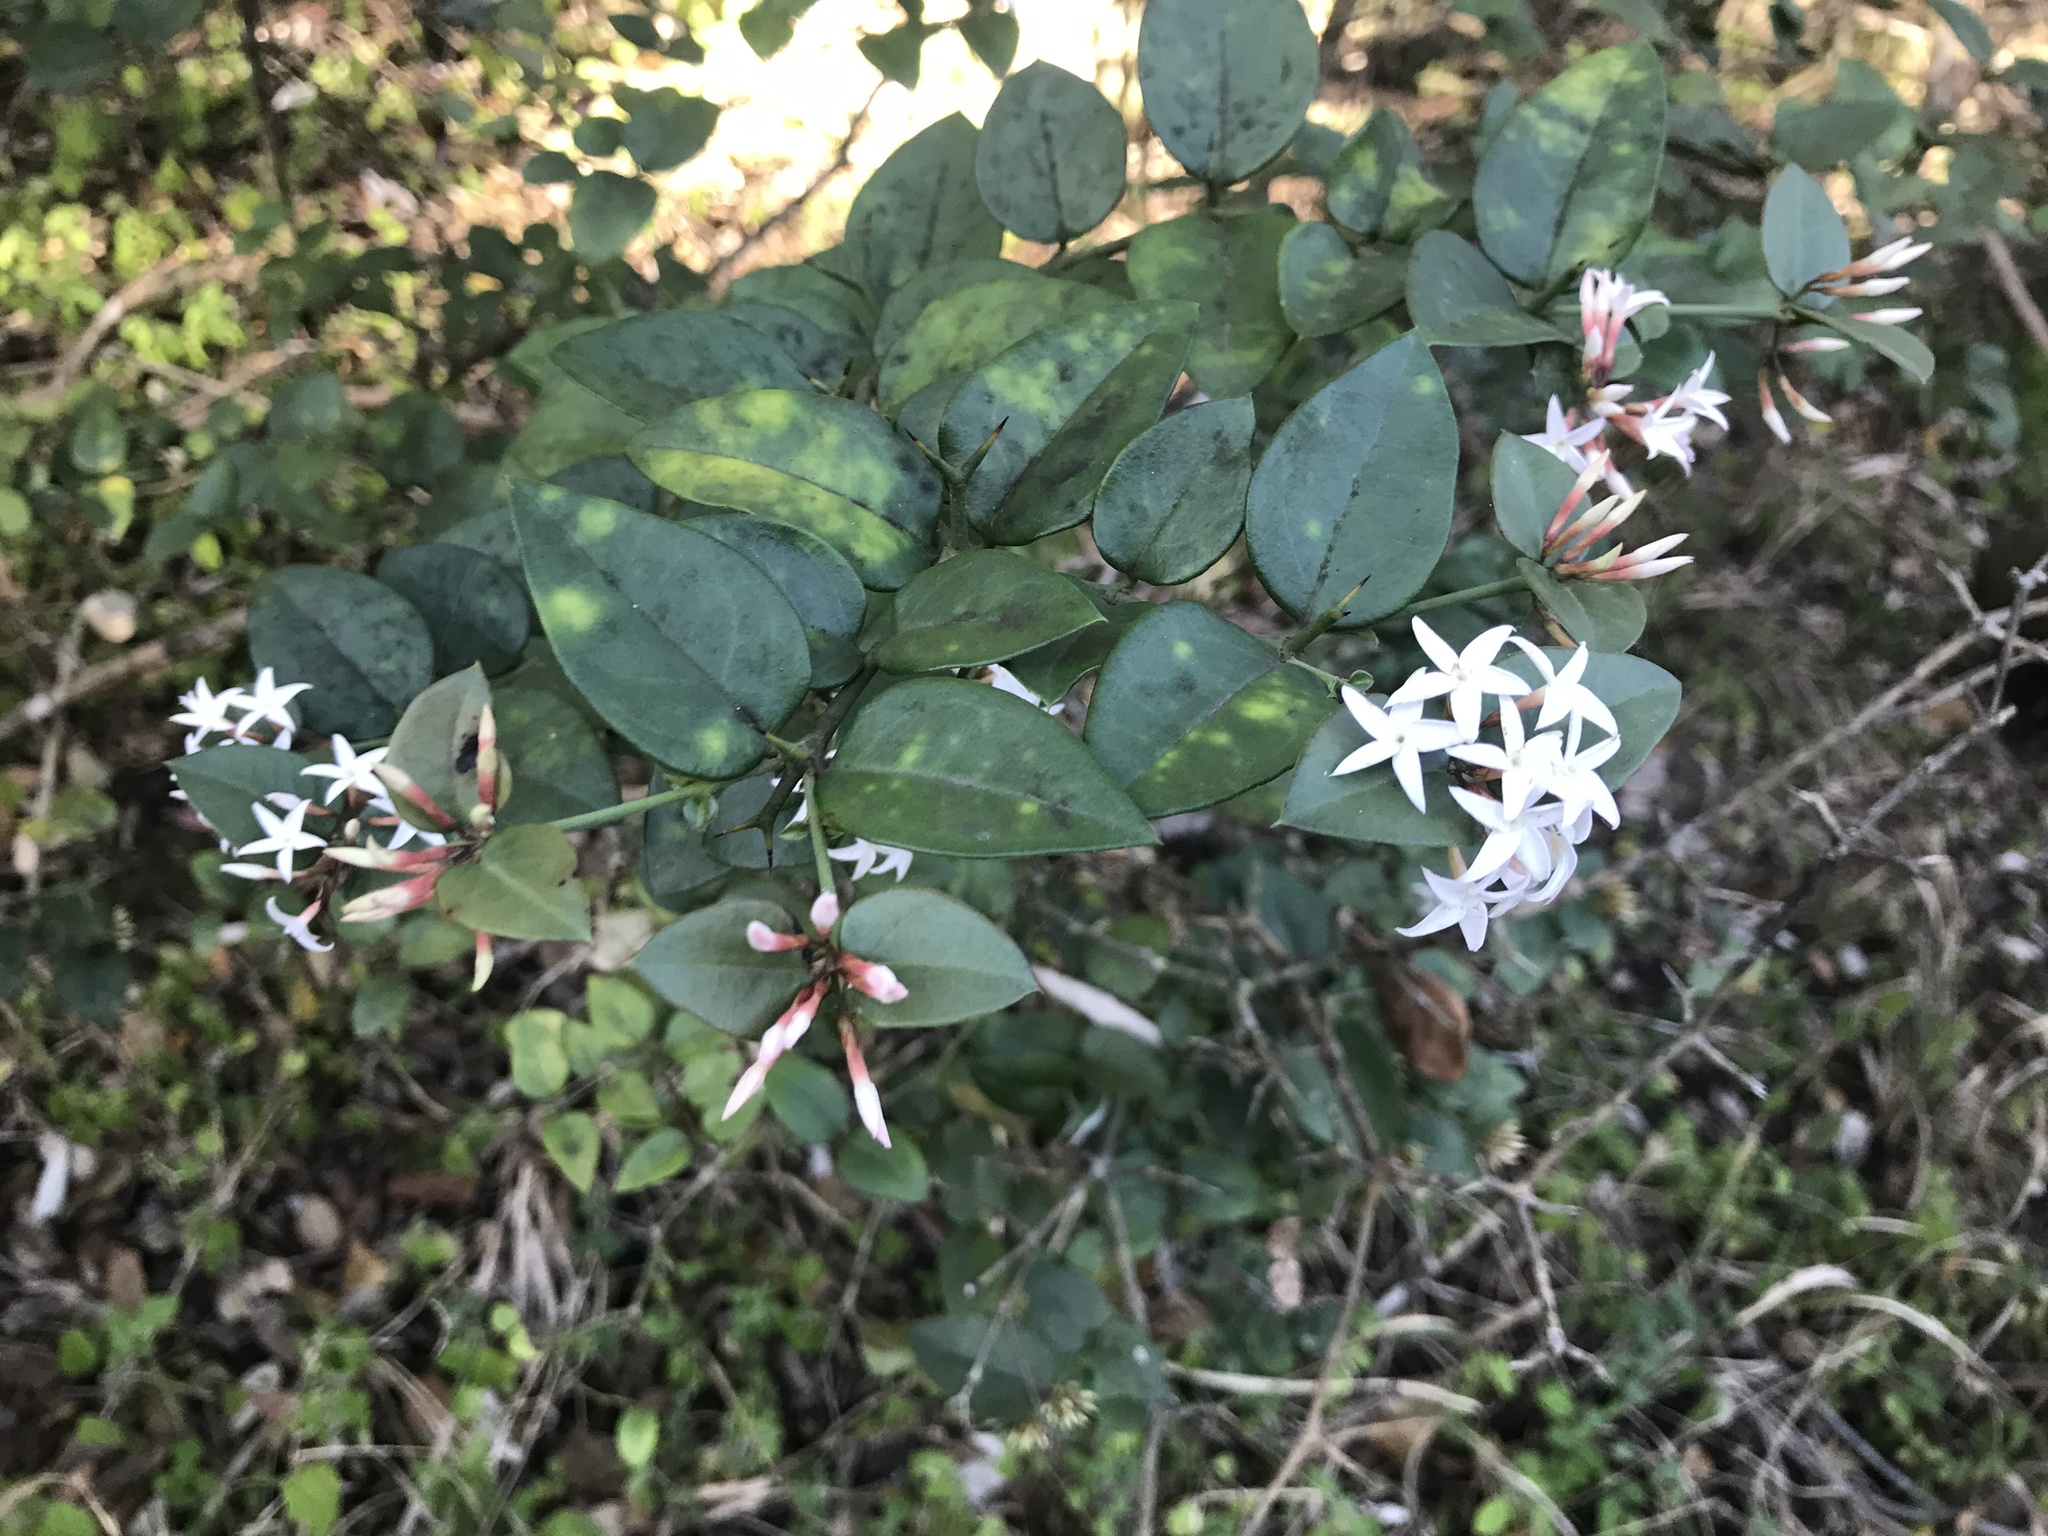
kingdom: Plantae
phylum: Tracheophyta
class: Magnoliopsida
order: Gentianales
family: Apocynaceae
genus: Carissa
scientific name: Carissa bispinosa
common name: Forest num-num
